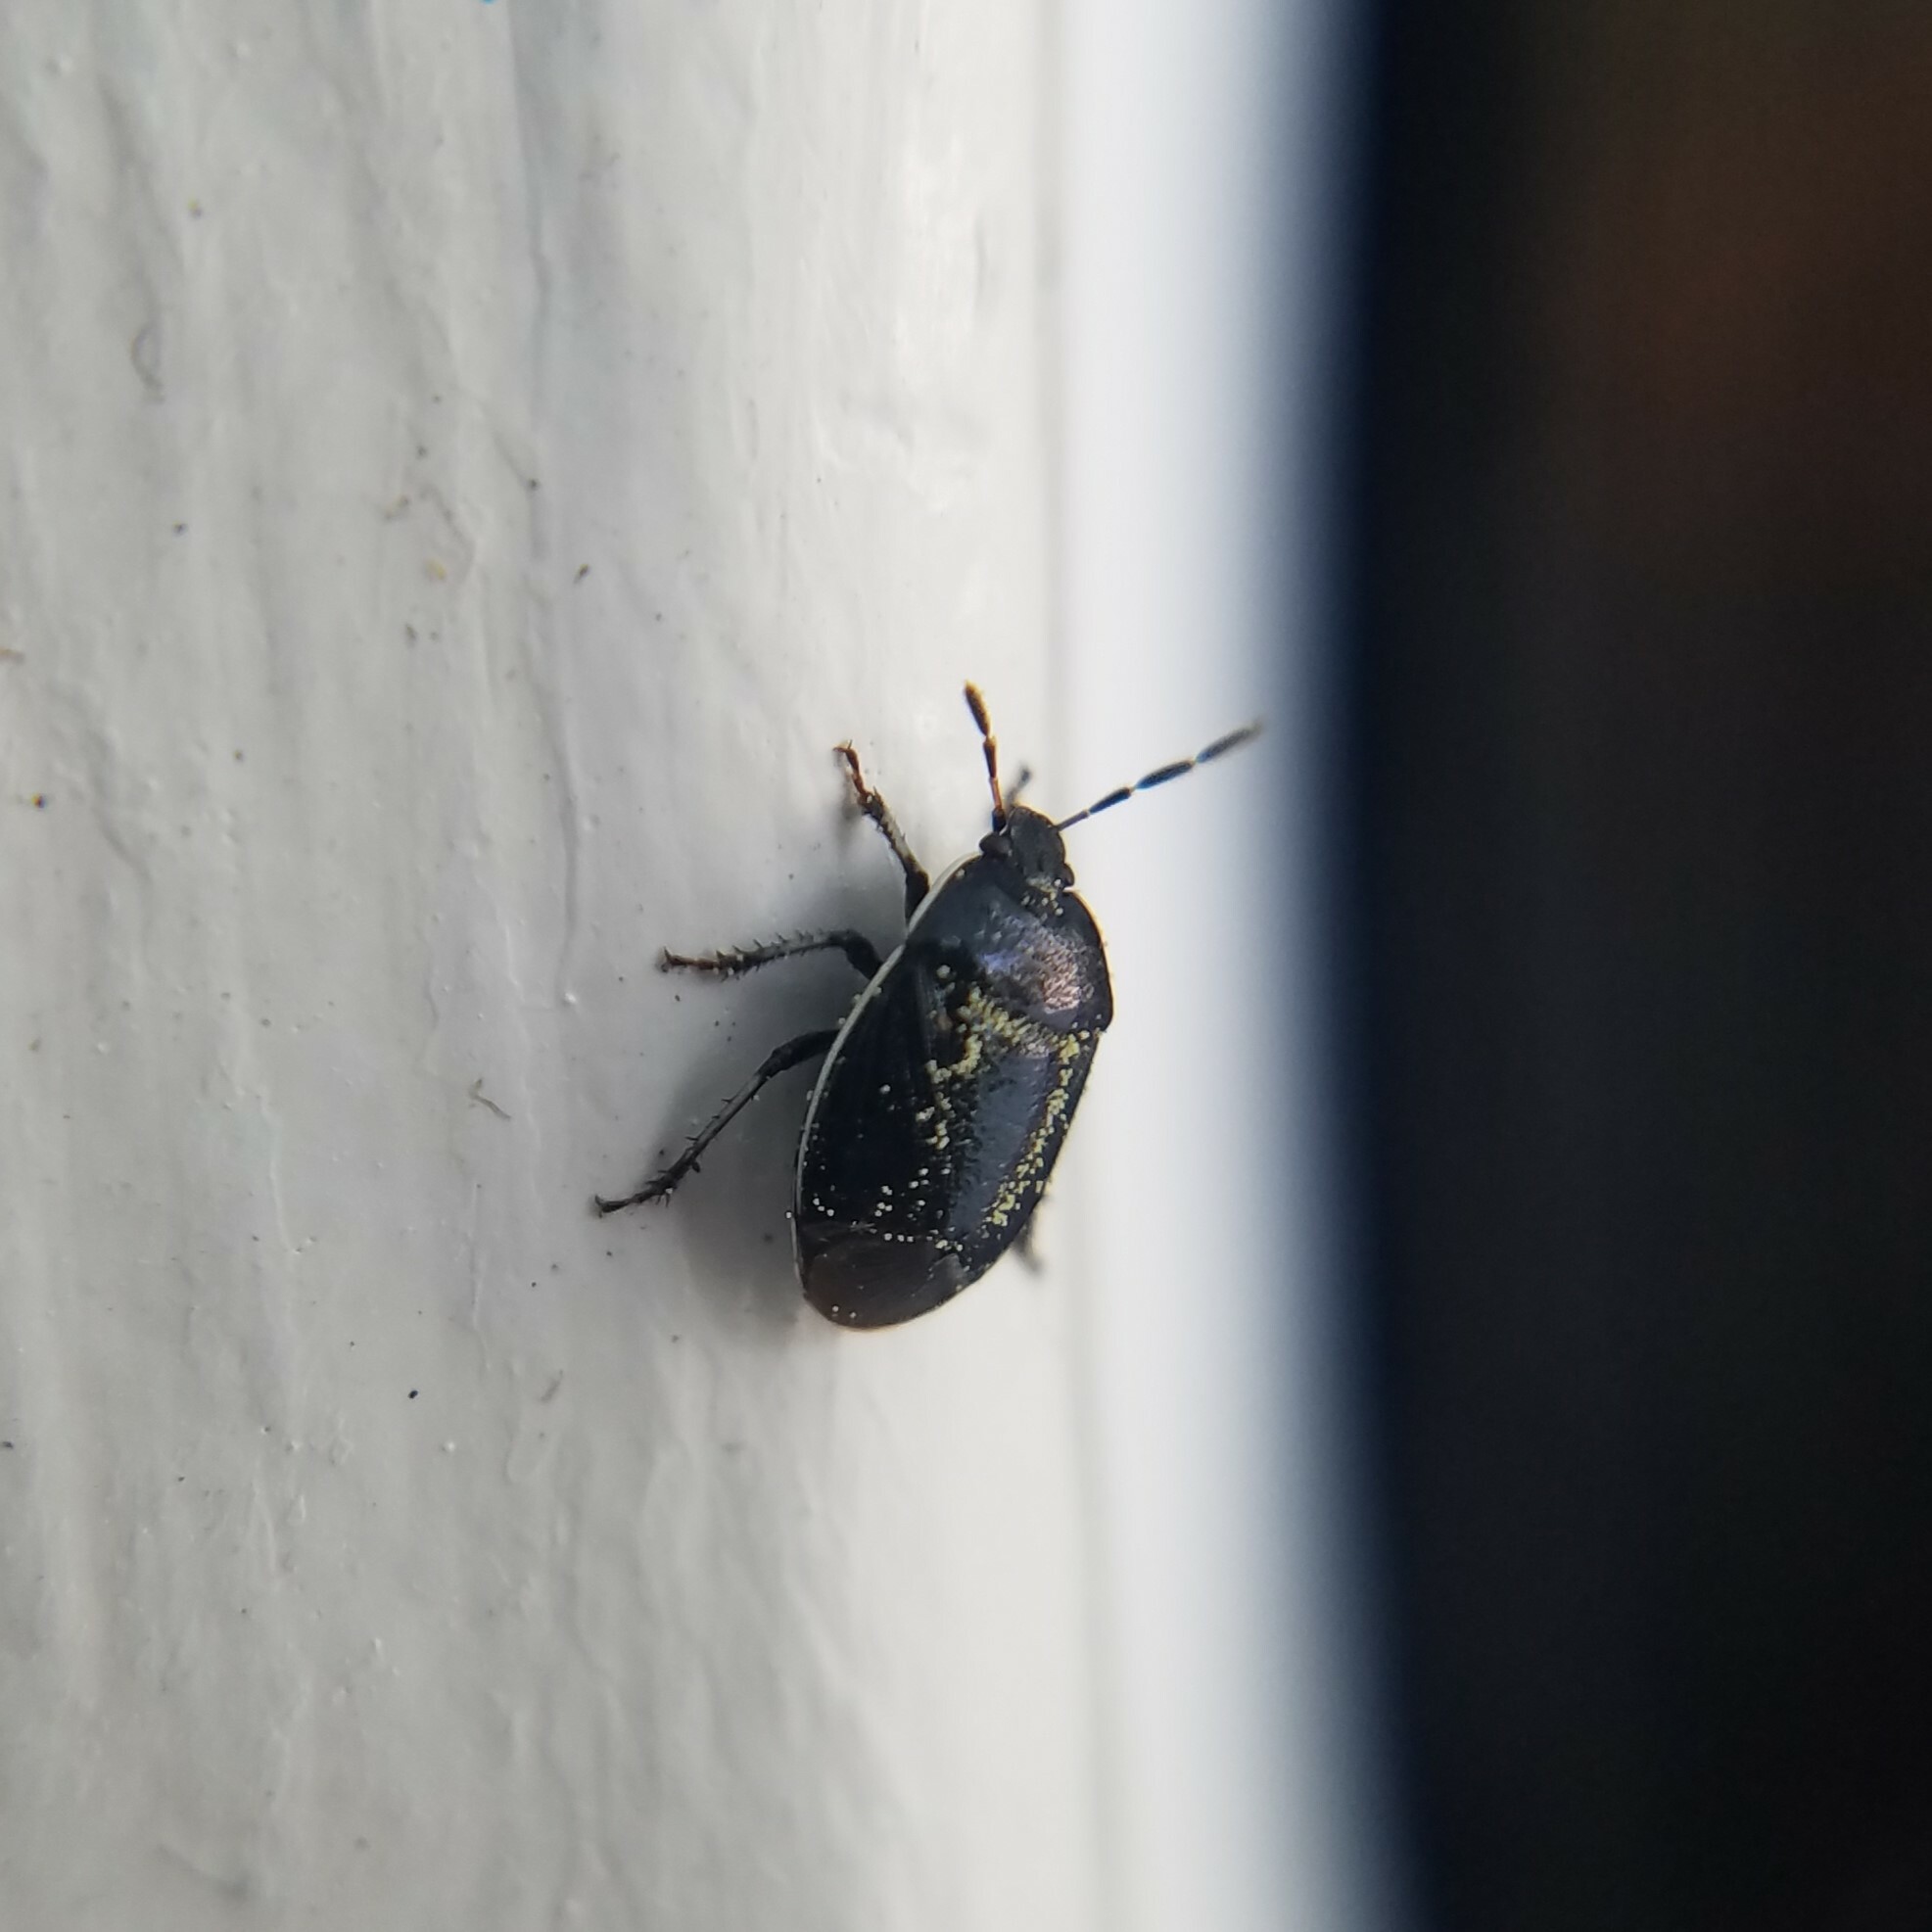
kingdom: Animalia
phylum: Arthropoda
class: Insecta
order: Hemiptera
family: Cydnidae
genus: Sehirus
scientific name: Sehirus cinctus
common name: White-margined burrower bug
